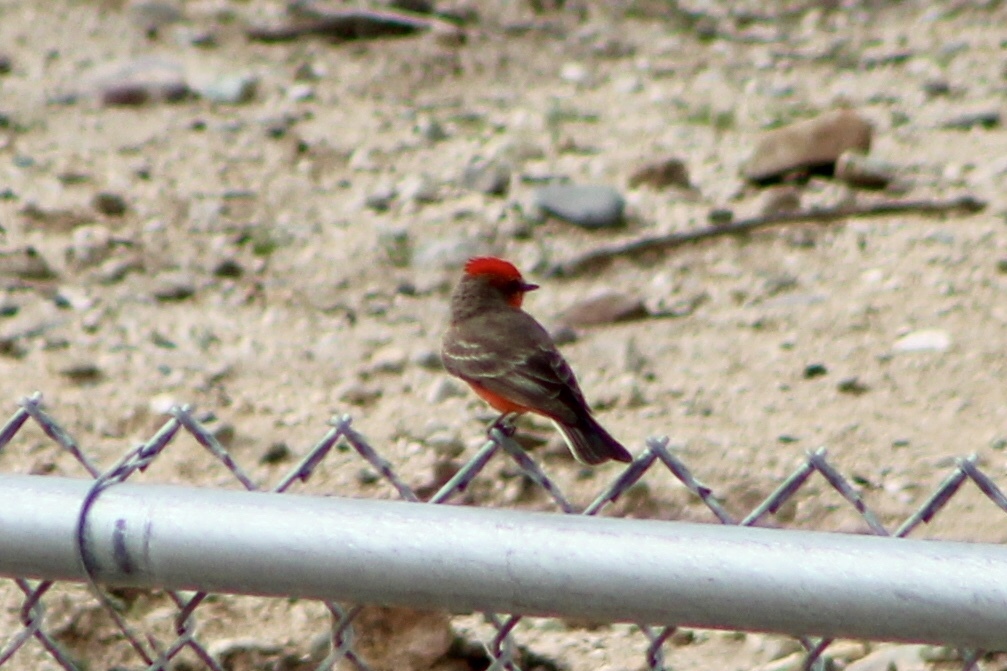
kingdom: Animalia
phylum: Chordata
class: Aves
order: Passeriformes
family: Tyrannidae
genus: Pyrocephalus
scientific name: Pyrocephalus rubinus
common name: Vermilion flycatcher
